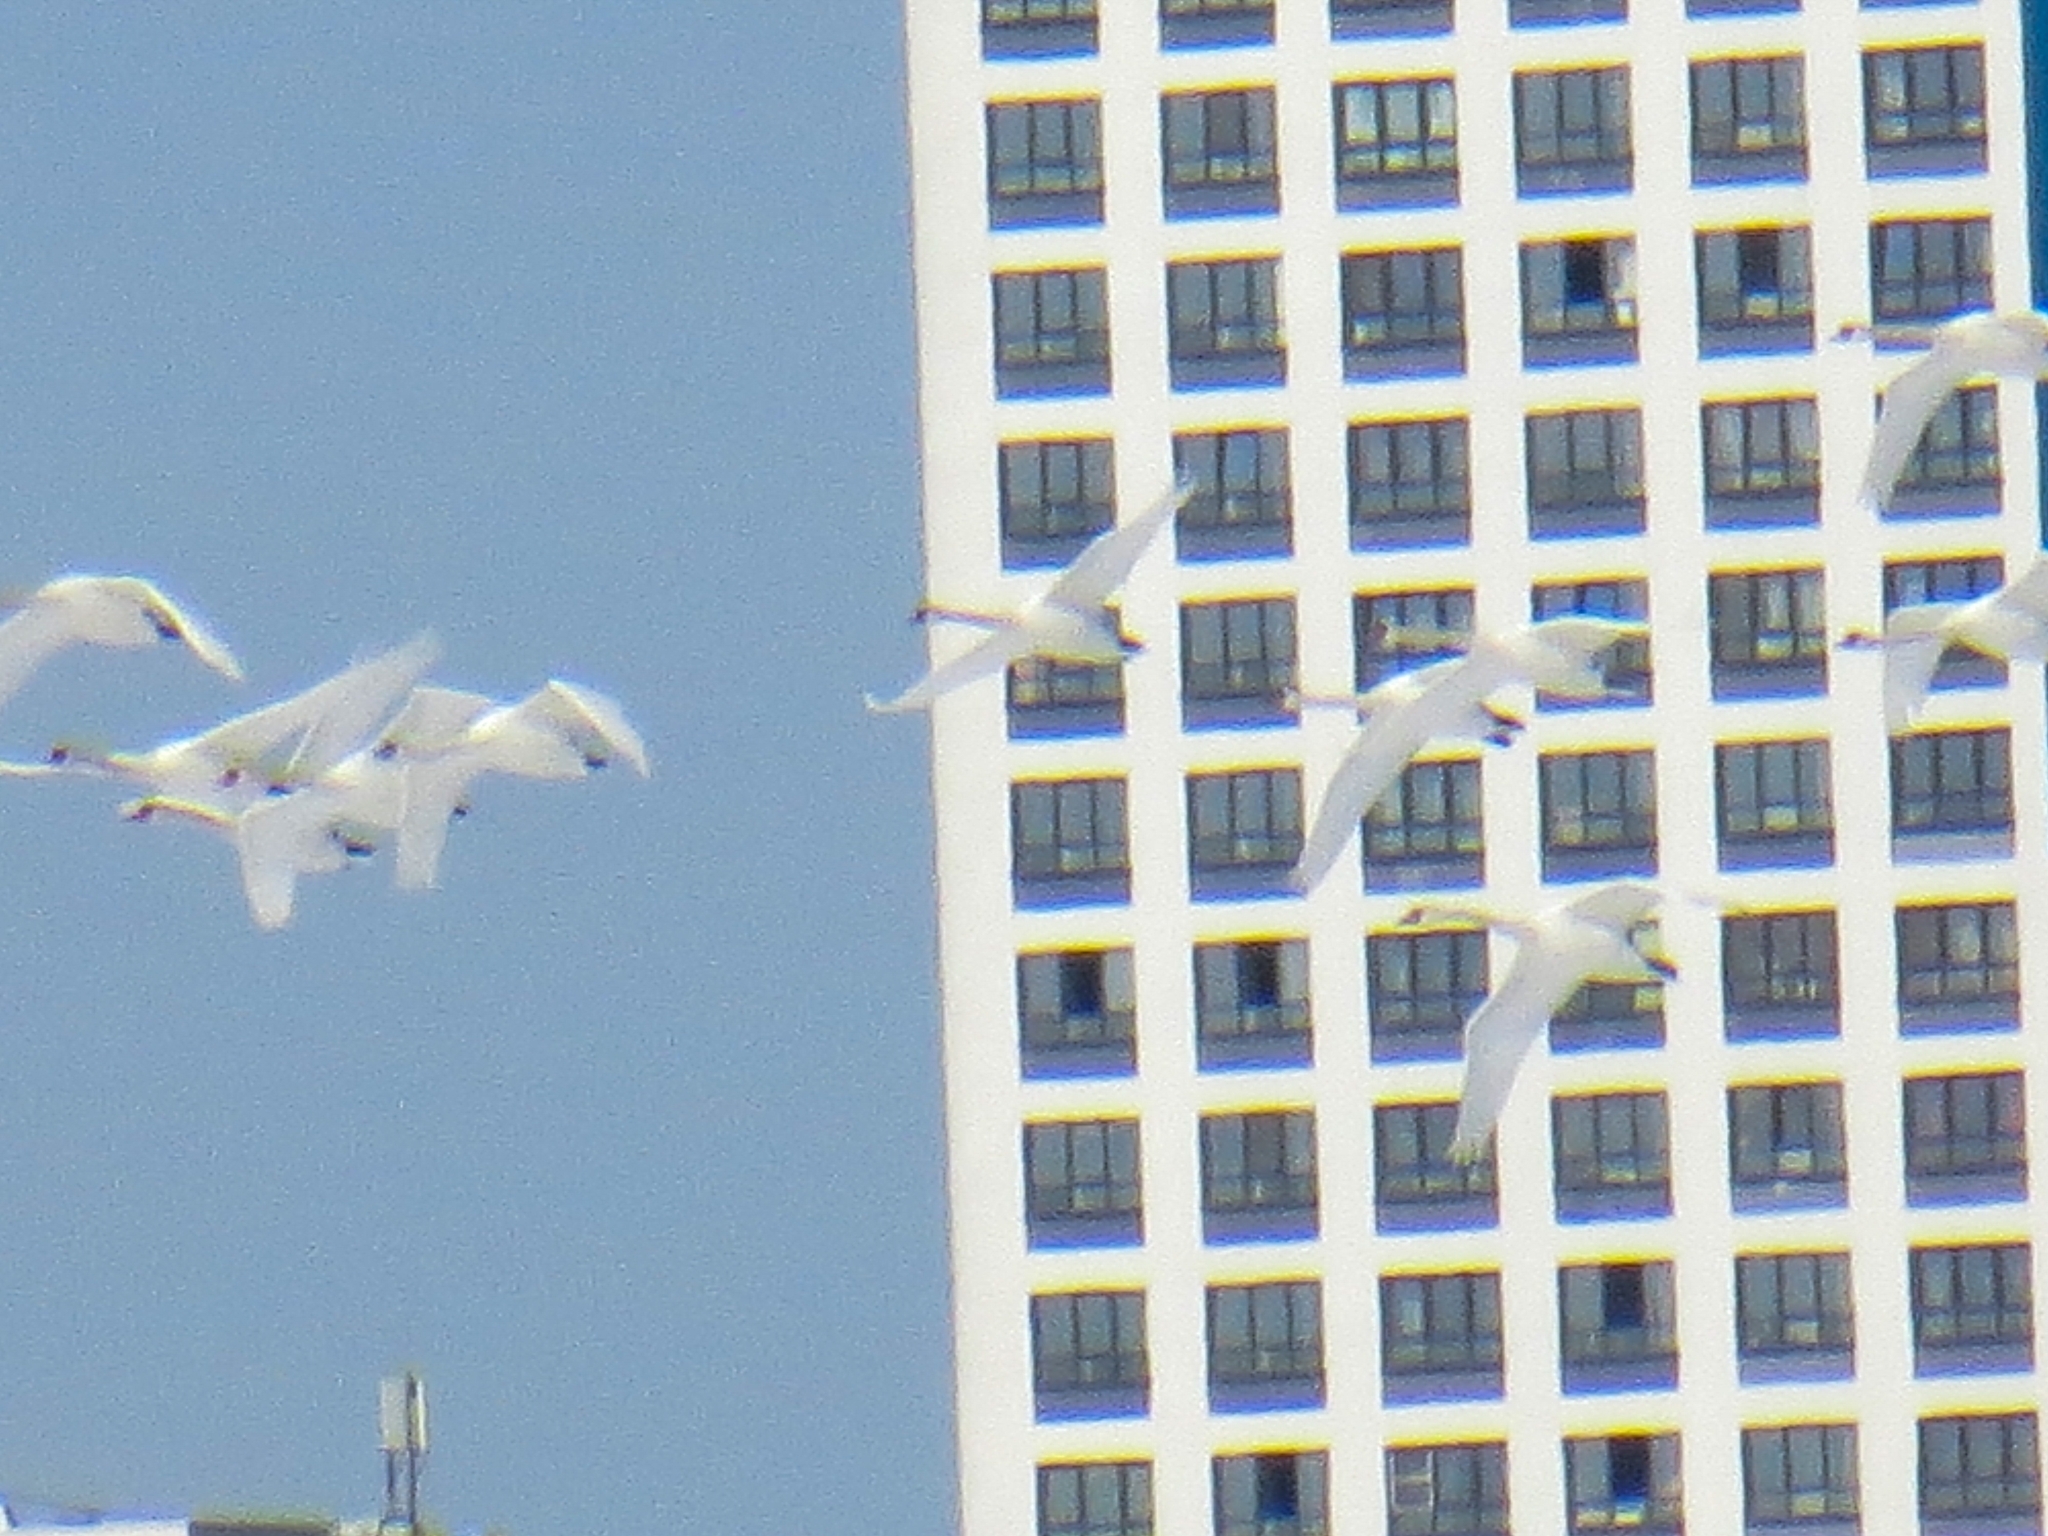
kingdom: Animalia
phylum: Chordata
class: Aves
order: Anseriformes
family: Anatidae
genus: Cygnus
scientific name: Cygnus olor
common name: Mute swan
